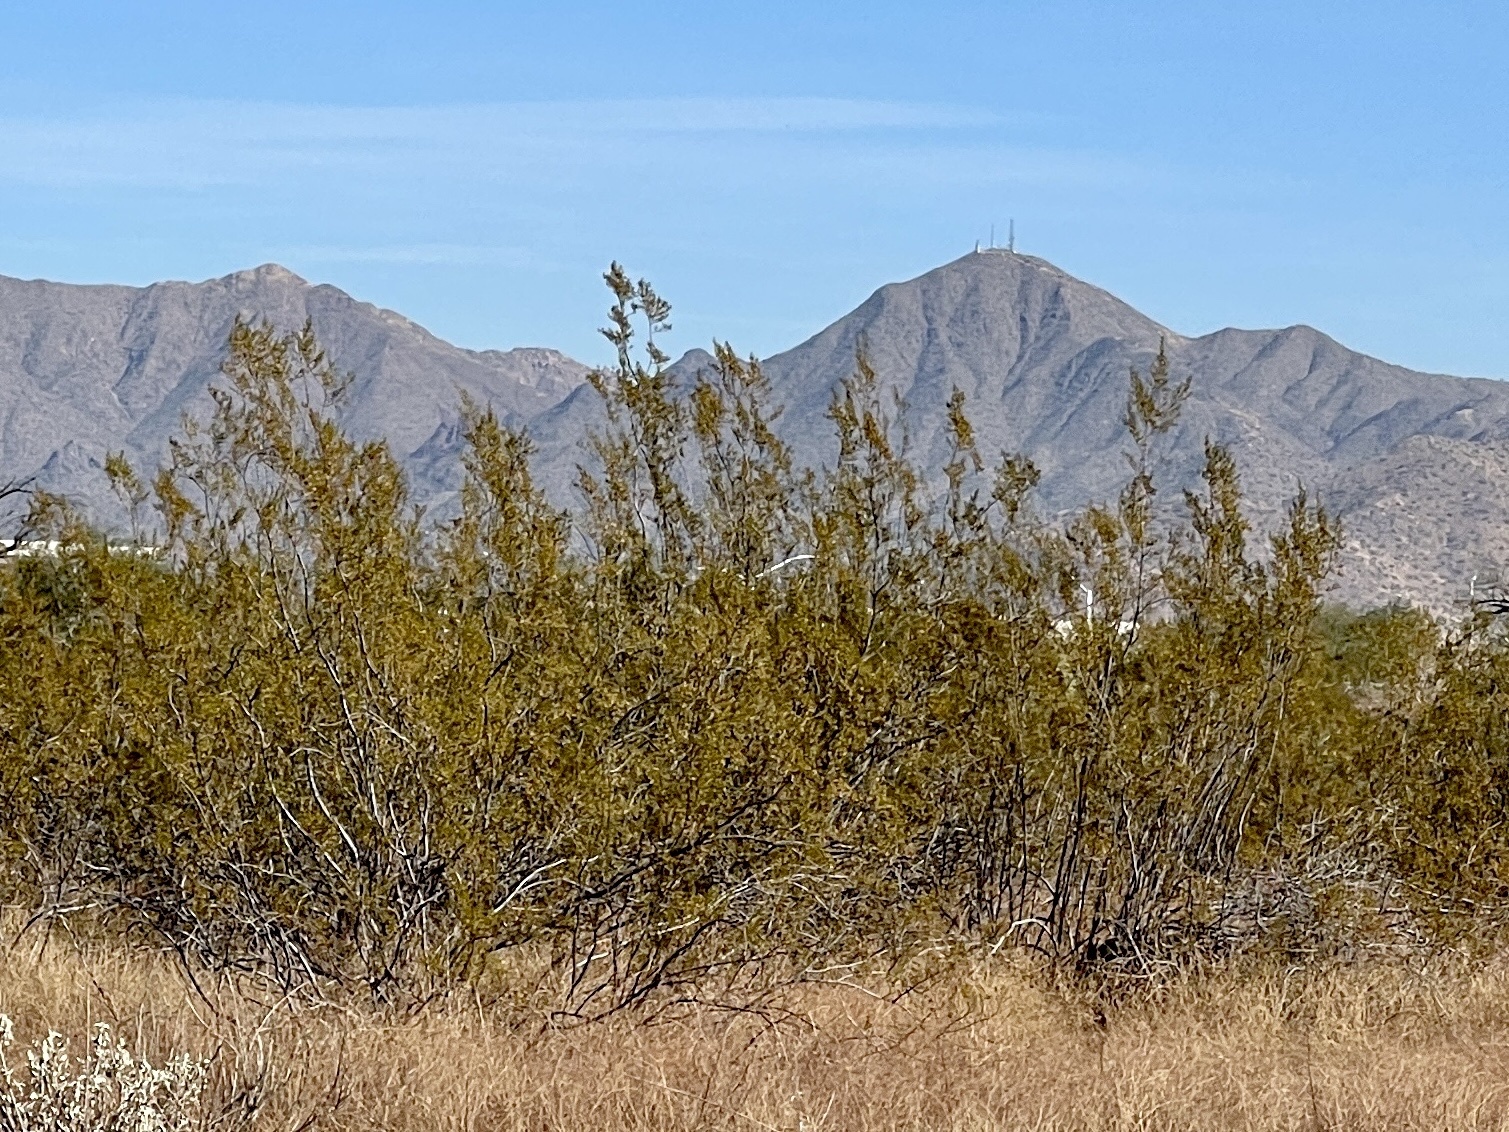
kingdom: Plantae
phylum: Tracheophyta
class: Magnoliopsida
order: Zygophyllales
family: Zygophyllaceae
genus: Larrea
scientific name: Larrea tridentata
